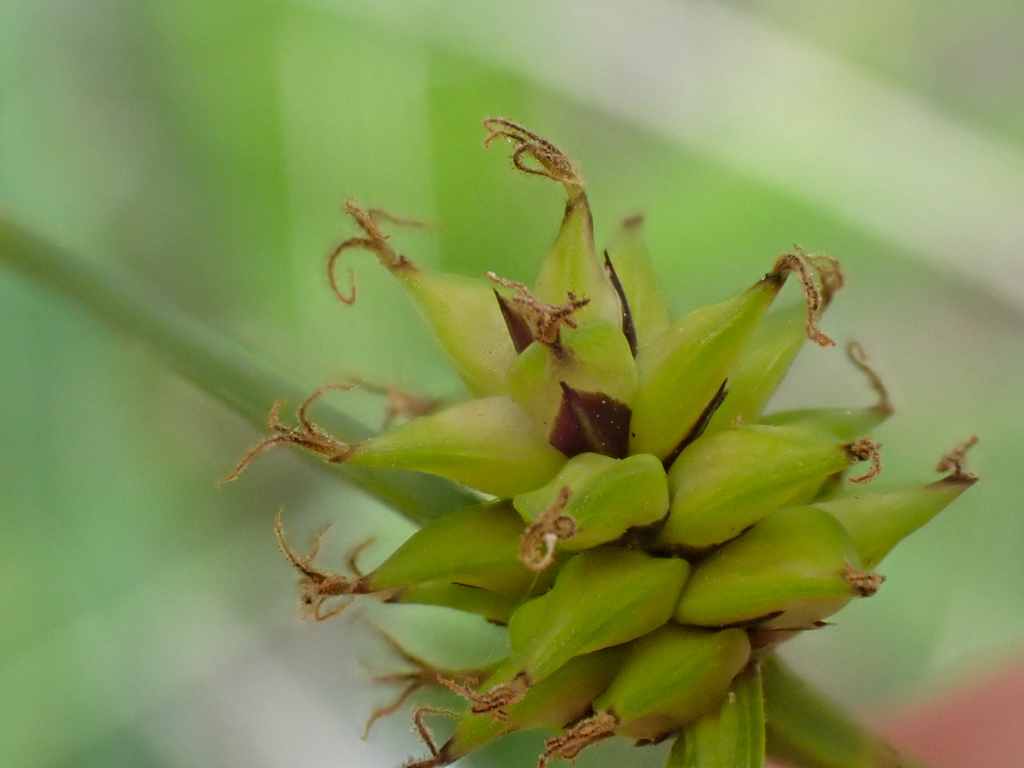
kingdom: Plantae
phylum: Tracheophyta
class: Liliopsida
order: Poales
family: Cyperaceae
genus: Carex
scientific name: Carex serratodens
